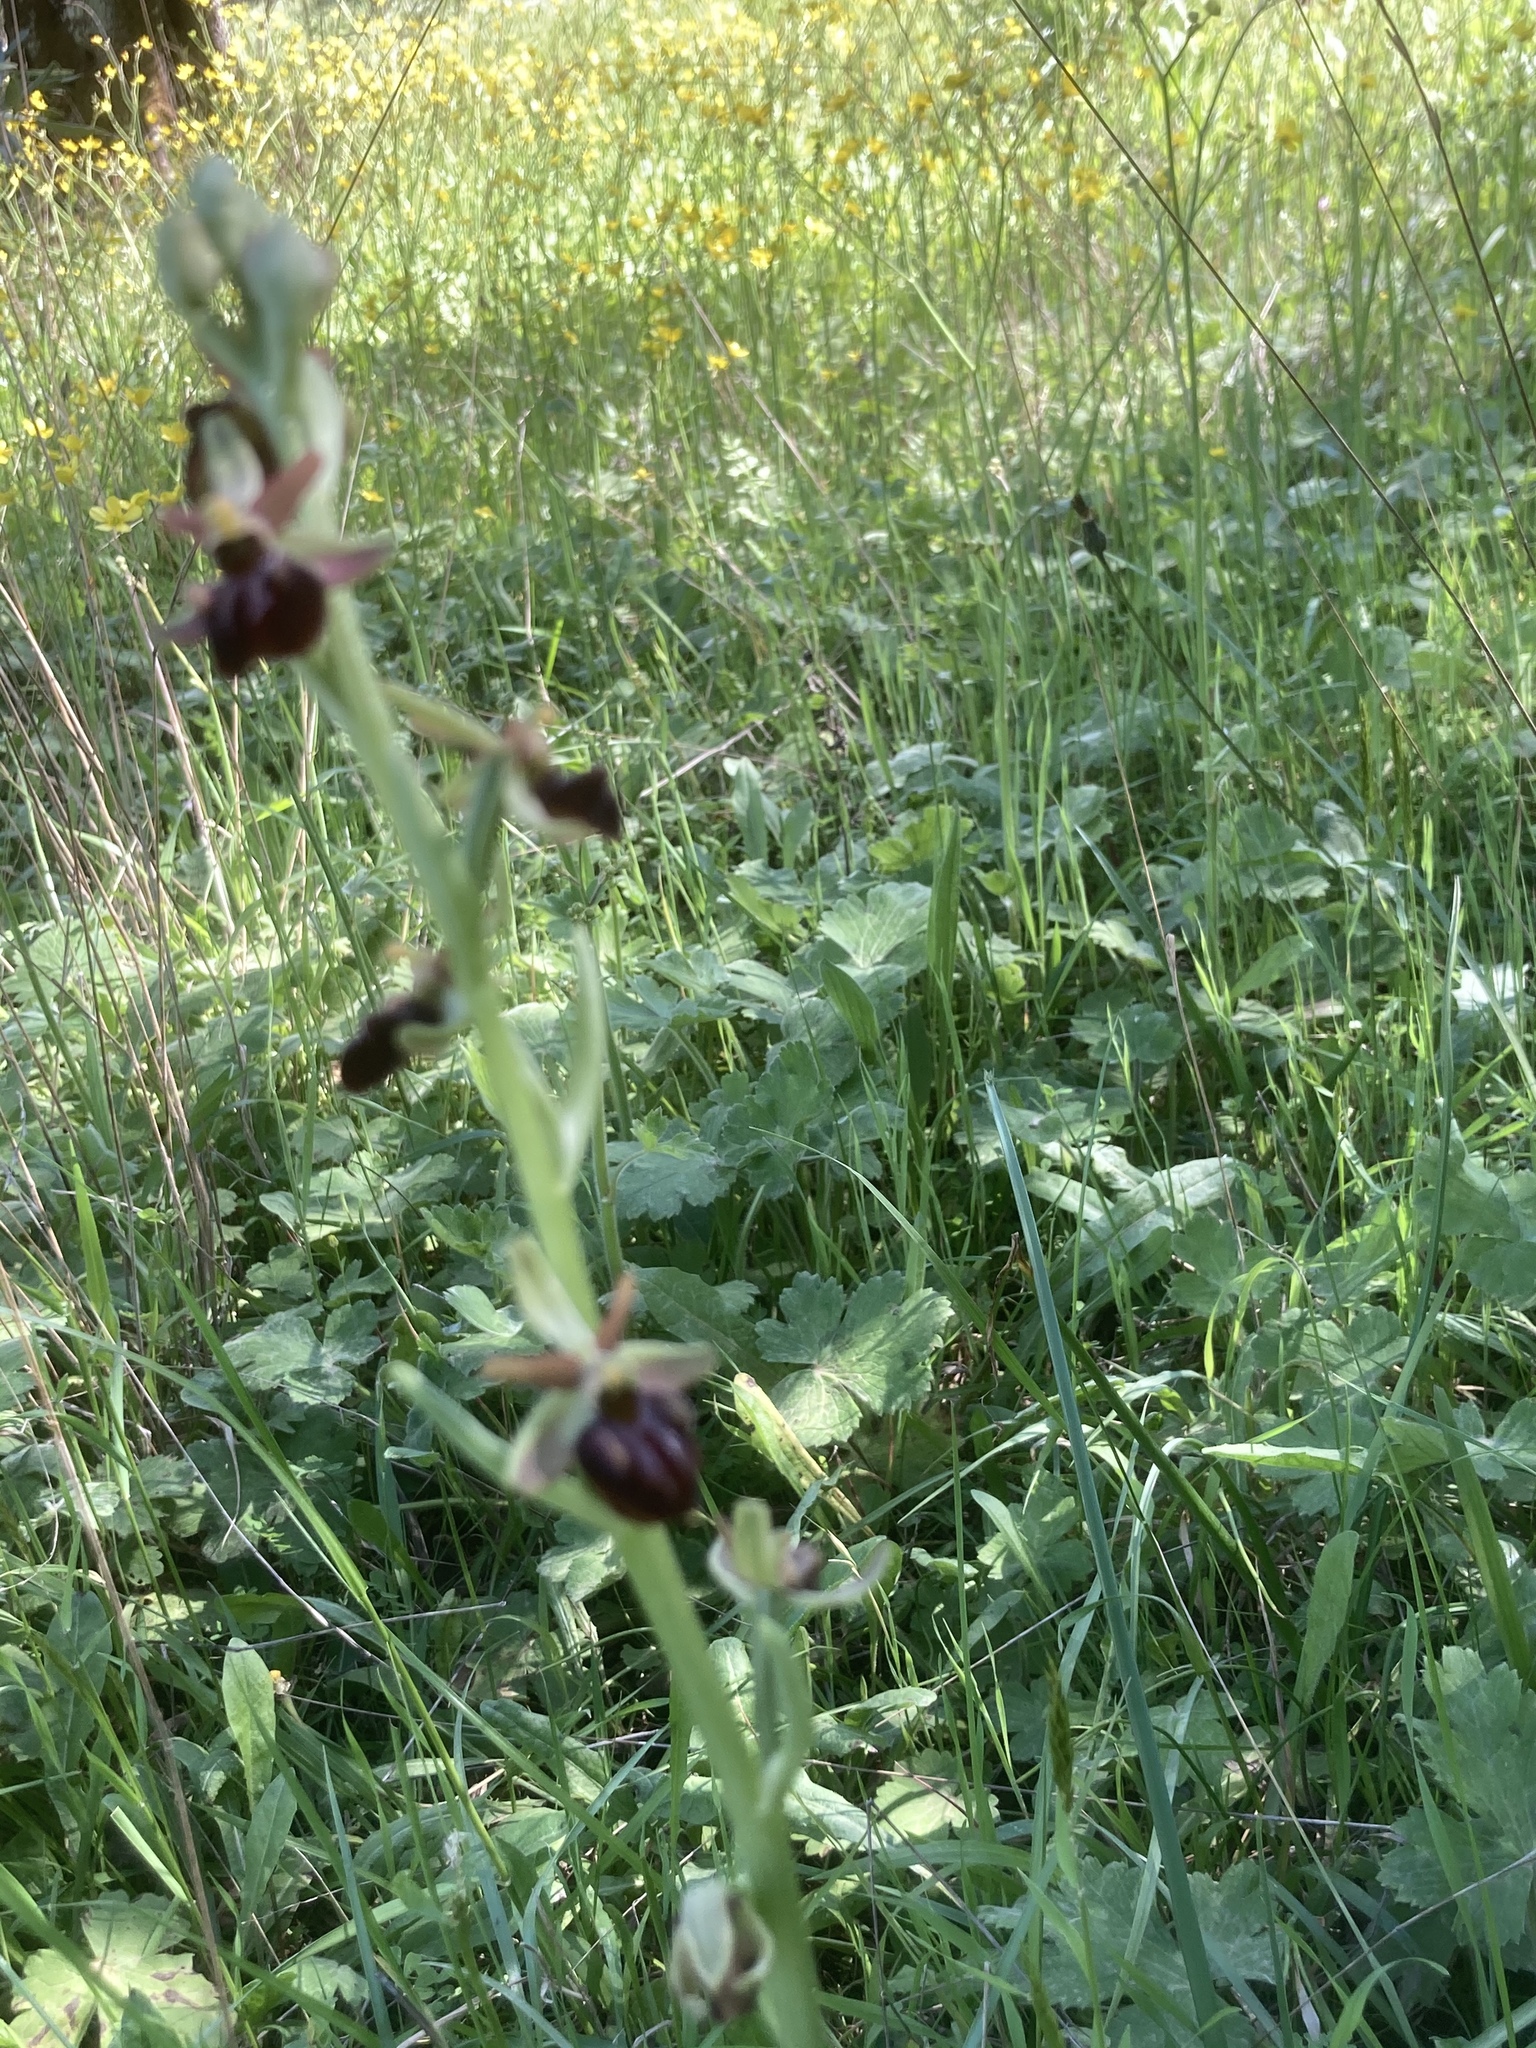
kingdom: Plantae
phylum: Tracheophyta
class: Liliopsida
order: Asparagales
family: Orchidaceae
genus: Ophrys
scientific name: Ophrys sphegodes
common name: Early spider-orchid
